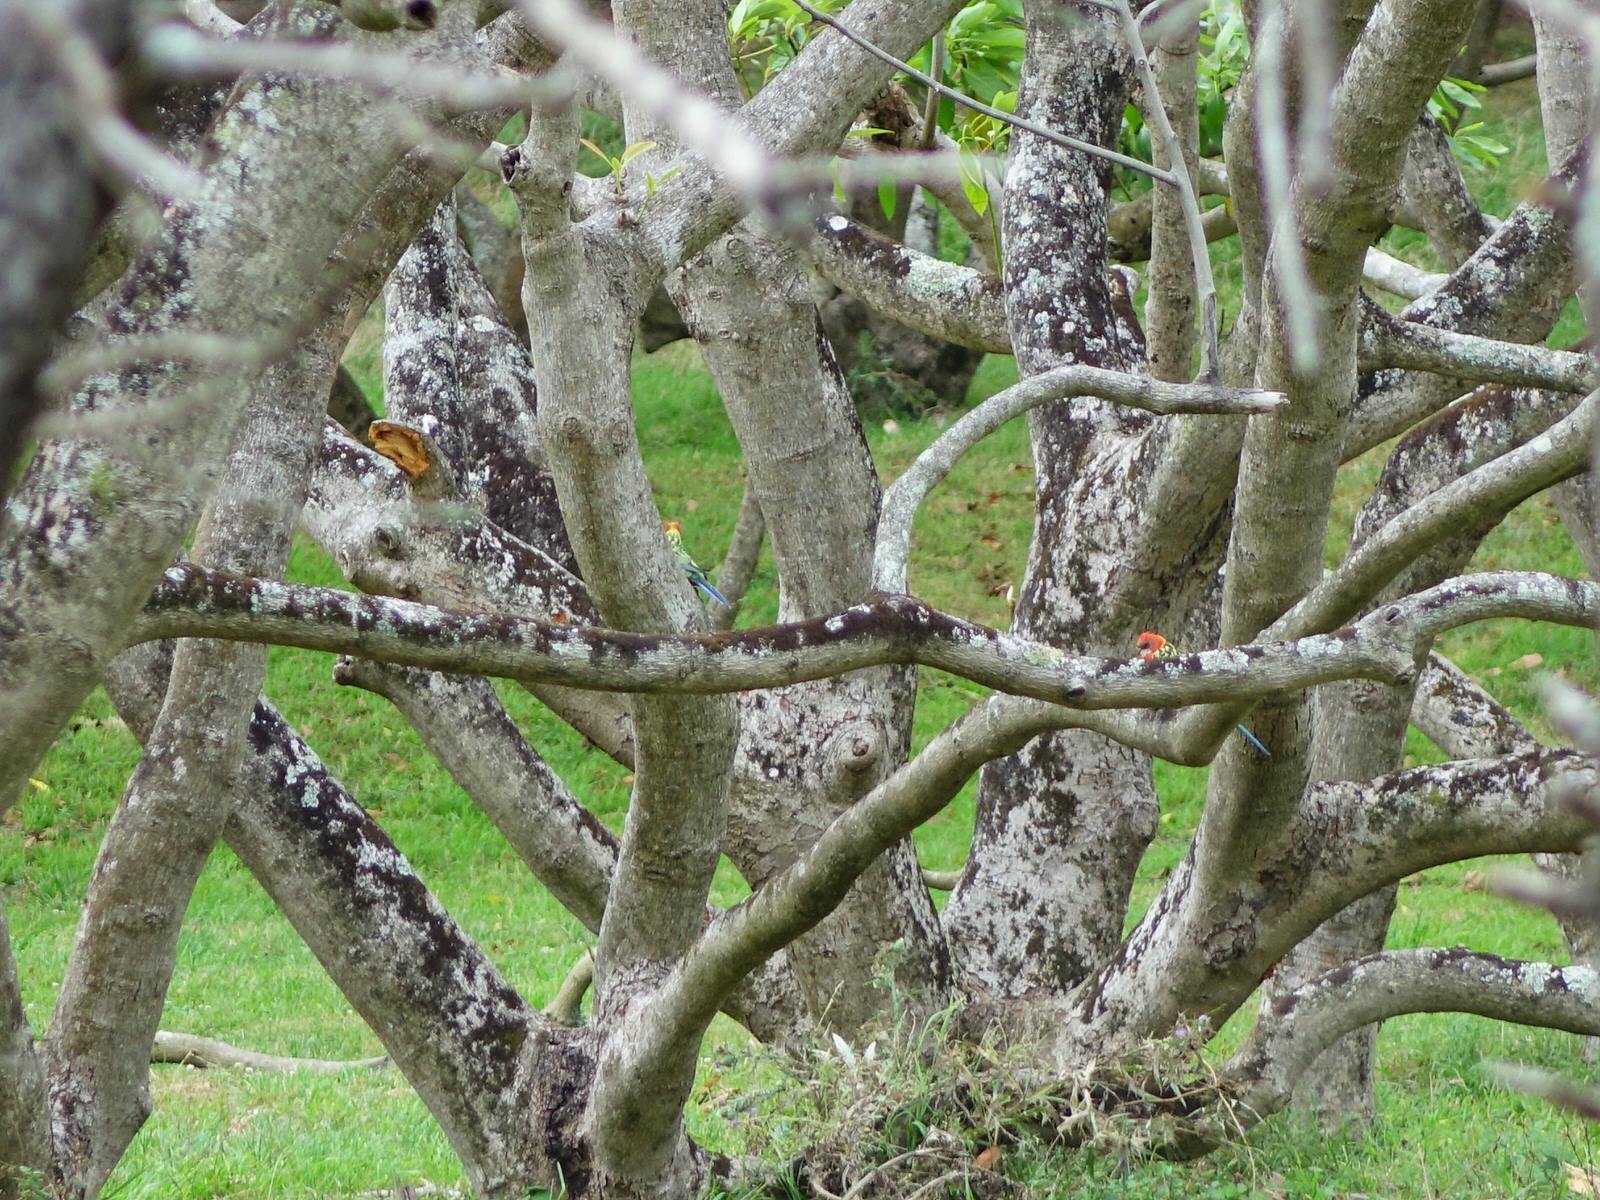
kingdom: Animalia
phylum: Chordata
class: Aves
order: Psittaciformes
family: Psittacidae
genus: Platycercus
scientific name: Platycercus eximius
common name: Eastern rosella
